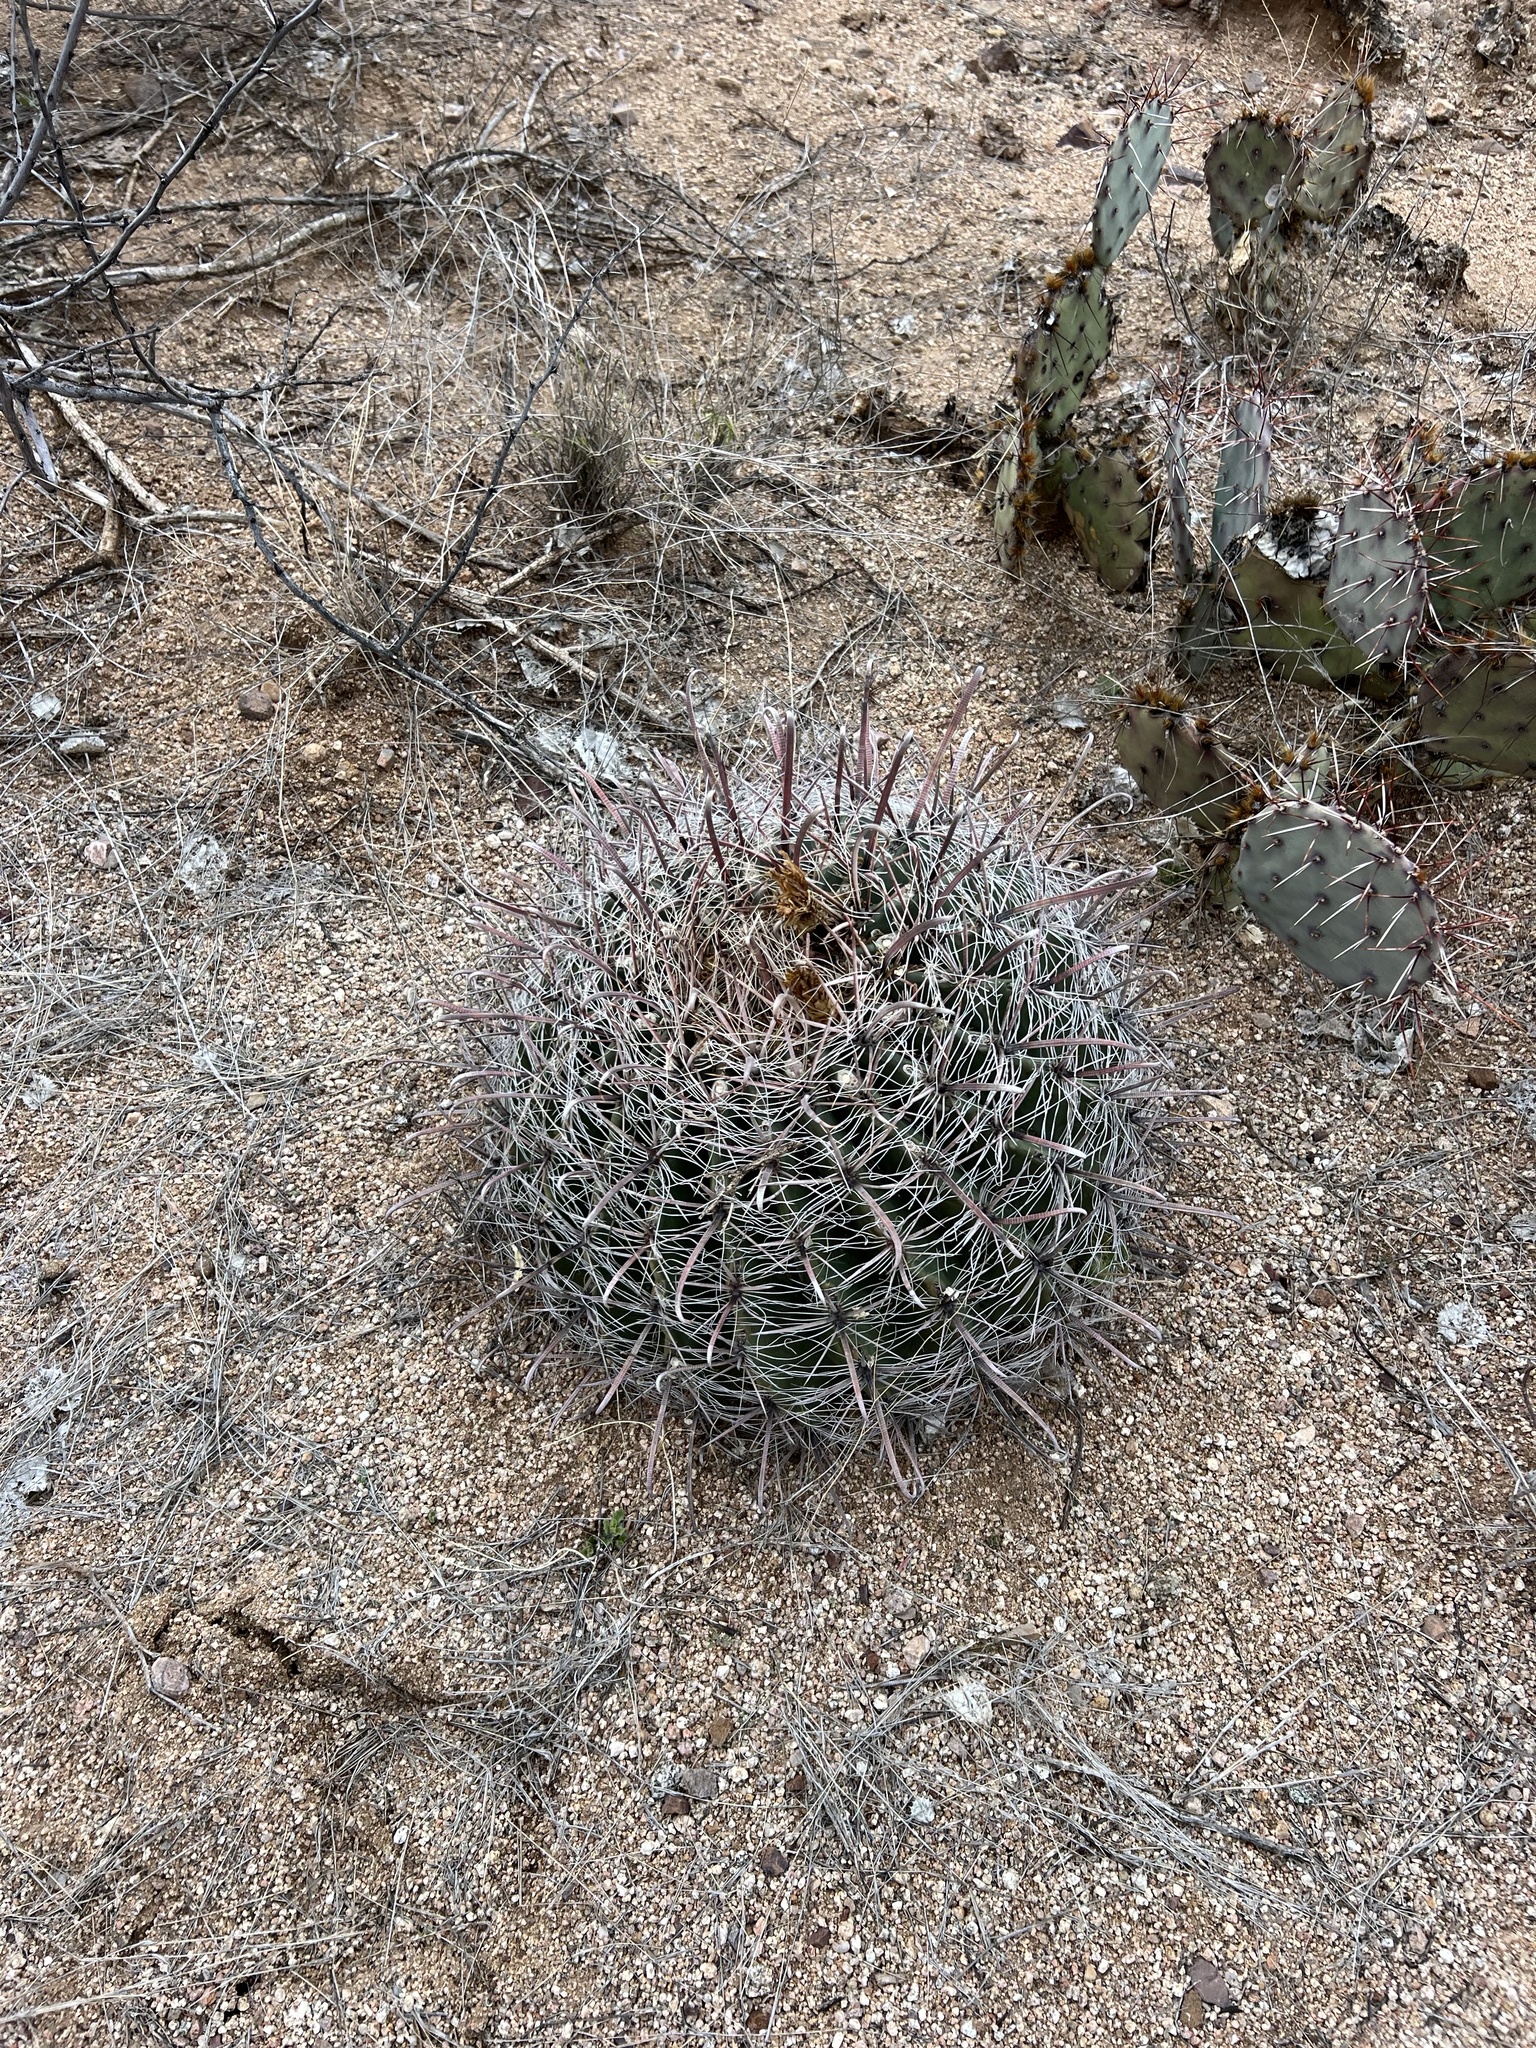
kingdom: Plantae
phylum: Tracheophyta
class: Magnoliopsida
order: Caryophyllales
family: Cactaceae
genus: Ferocactus
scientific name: Ferocactus wislizeni
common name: Candy barrel cactus
